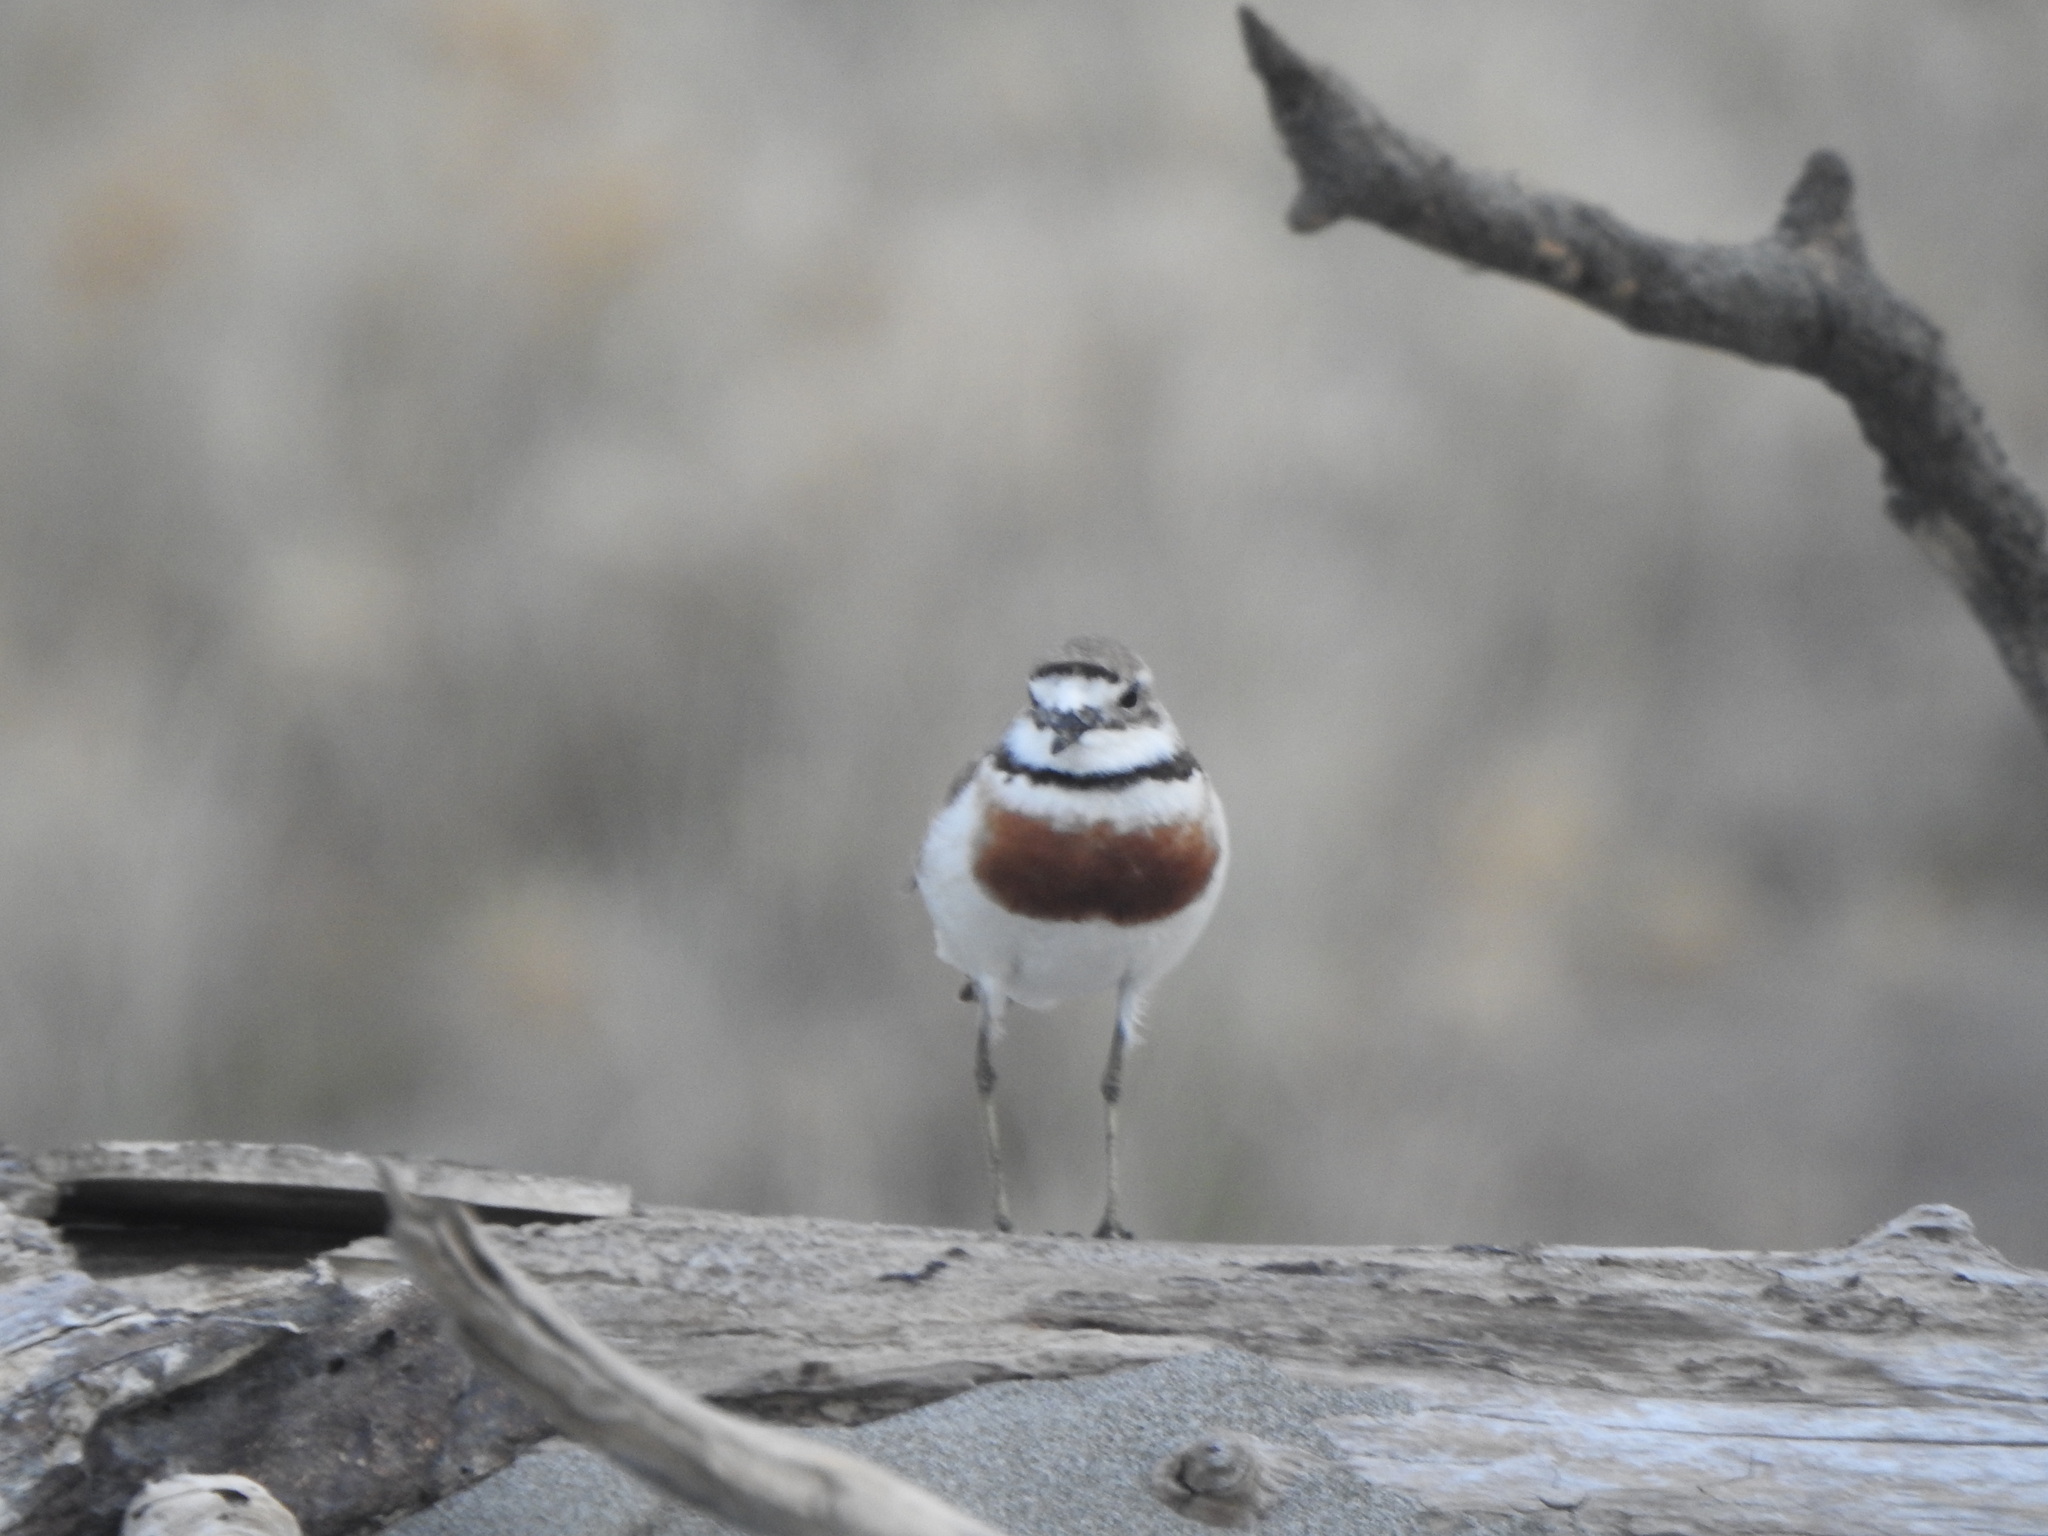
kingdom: Animalia
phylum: Chordata
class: Aves
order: Charadriiformes
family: Charadriidae
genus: Anarhynchus
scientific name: Anarhynchus
